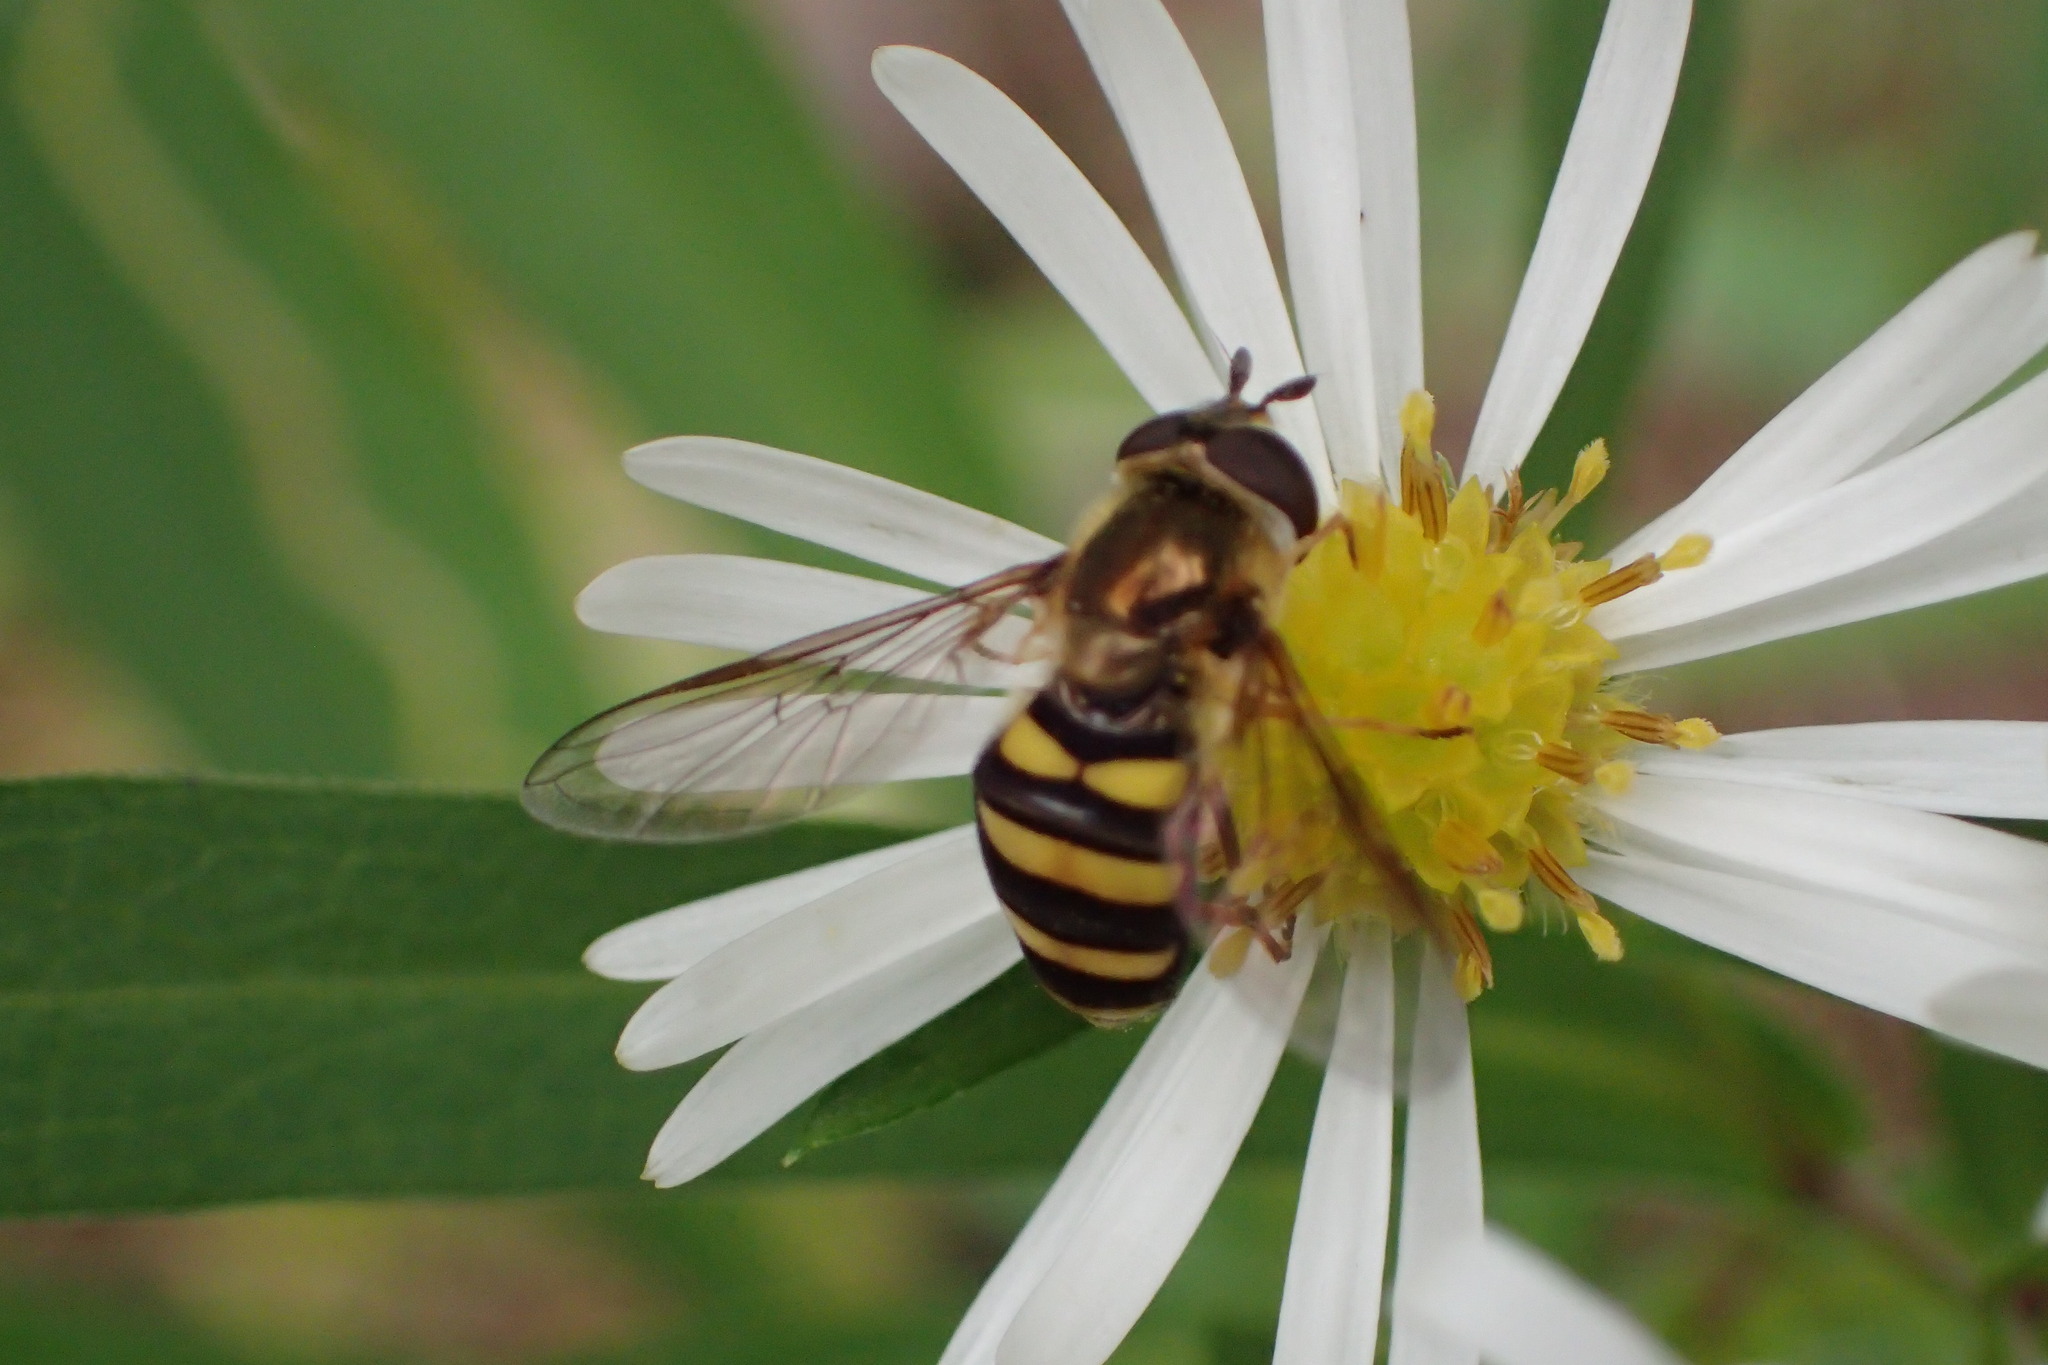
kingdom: Animalia
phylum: Arthropoda
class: Insecta
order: Diptera
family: Syrphidae
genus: Eupeodes
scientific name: Eupeodes
